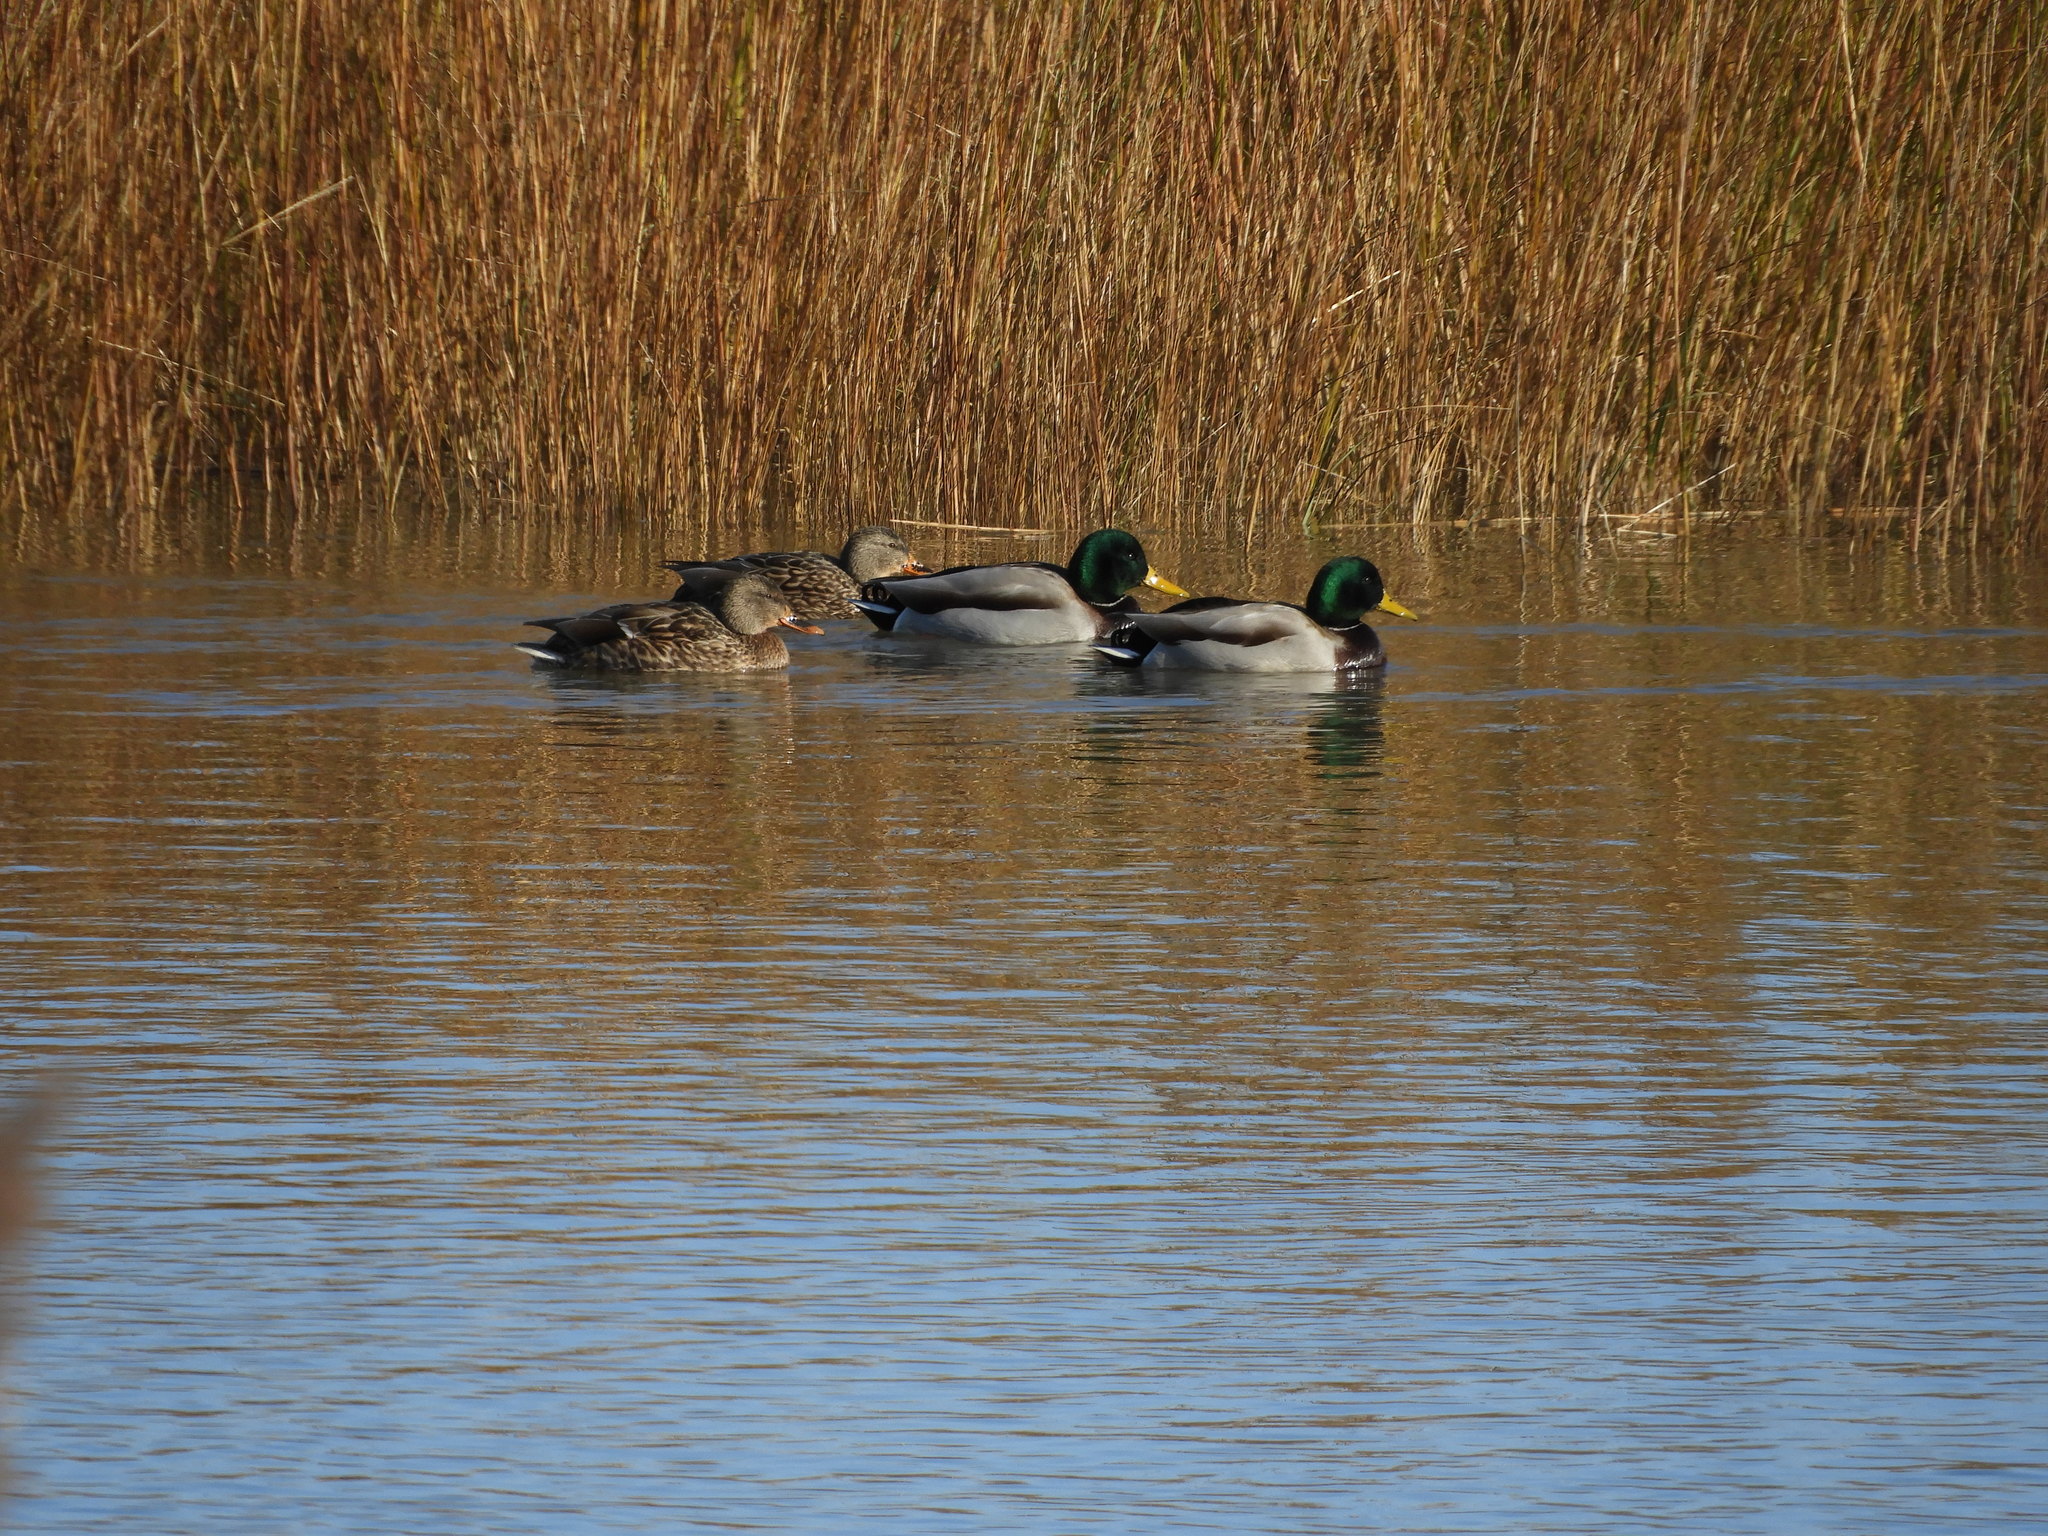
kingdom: Animalia
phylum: Chordata
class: Aves
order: Anseriformes
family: Anatidae
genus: Anas
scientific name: Anas platyrhynchos
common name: Mallard
